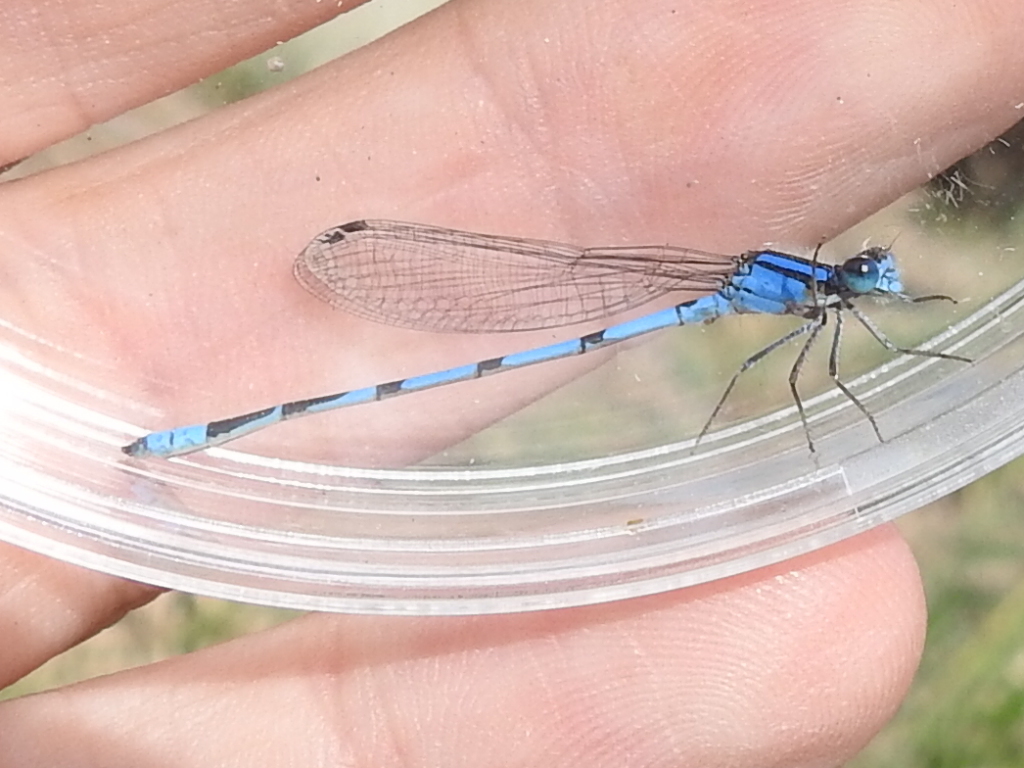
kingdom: Animalia
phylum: Arthropoda
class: Insecta
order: Odonata
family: Coenagrionidae
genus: Enallagma
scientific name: Enallagma civile
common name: Damselfly
